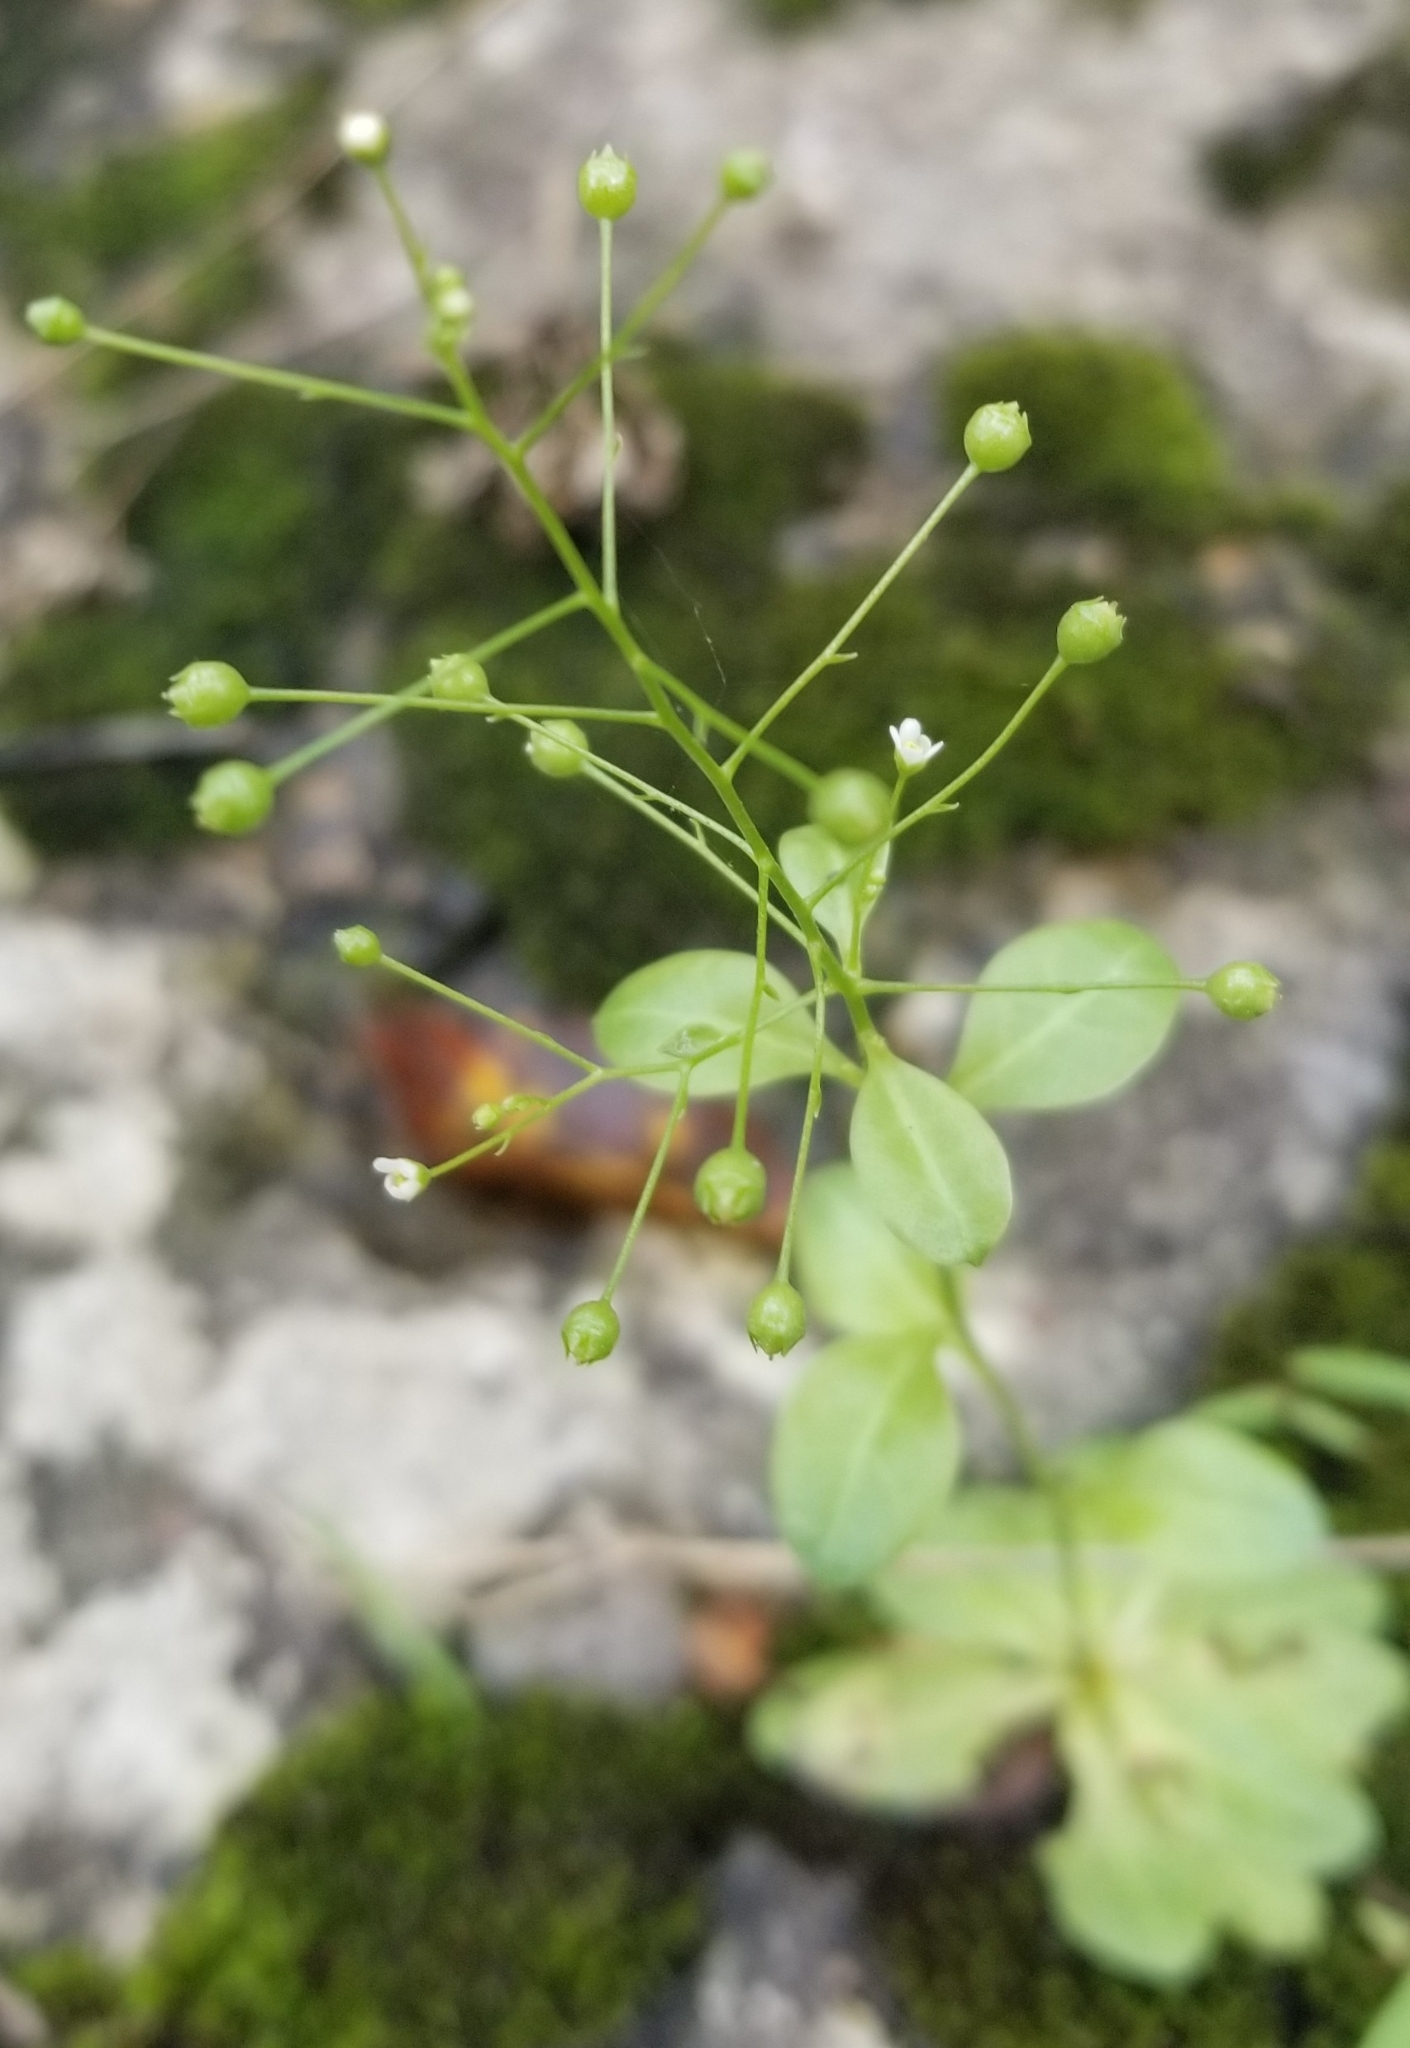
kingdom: Plantae
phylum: Tracheophyta
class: Magnoliopsida
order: Ericales
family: Primulaceae
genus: Samolus
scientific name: Samolus parviflorus
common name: False water pimpernel
